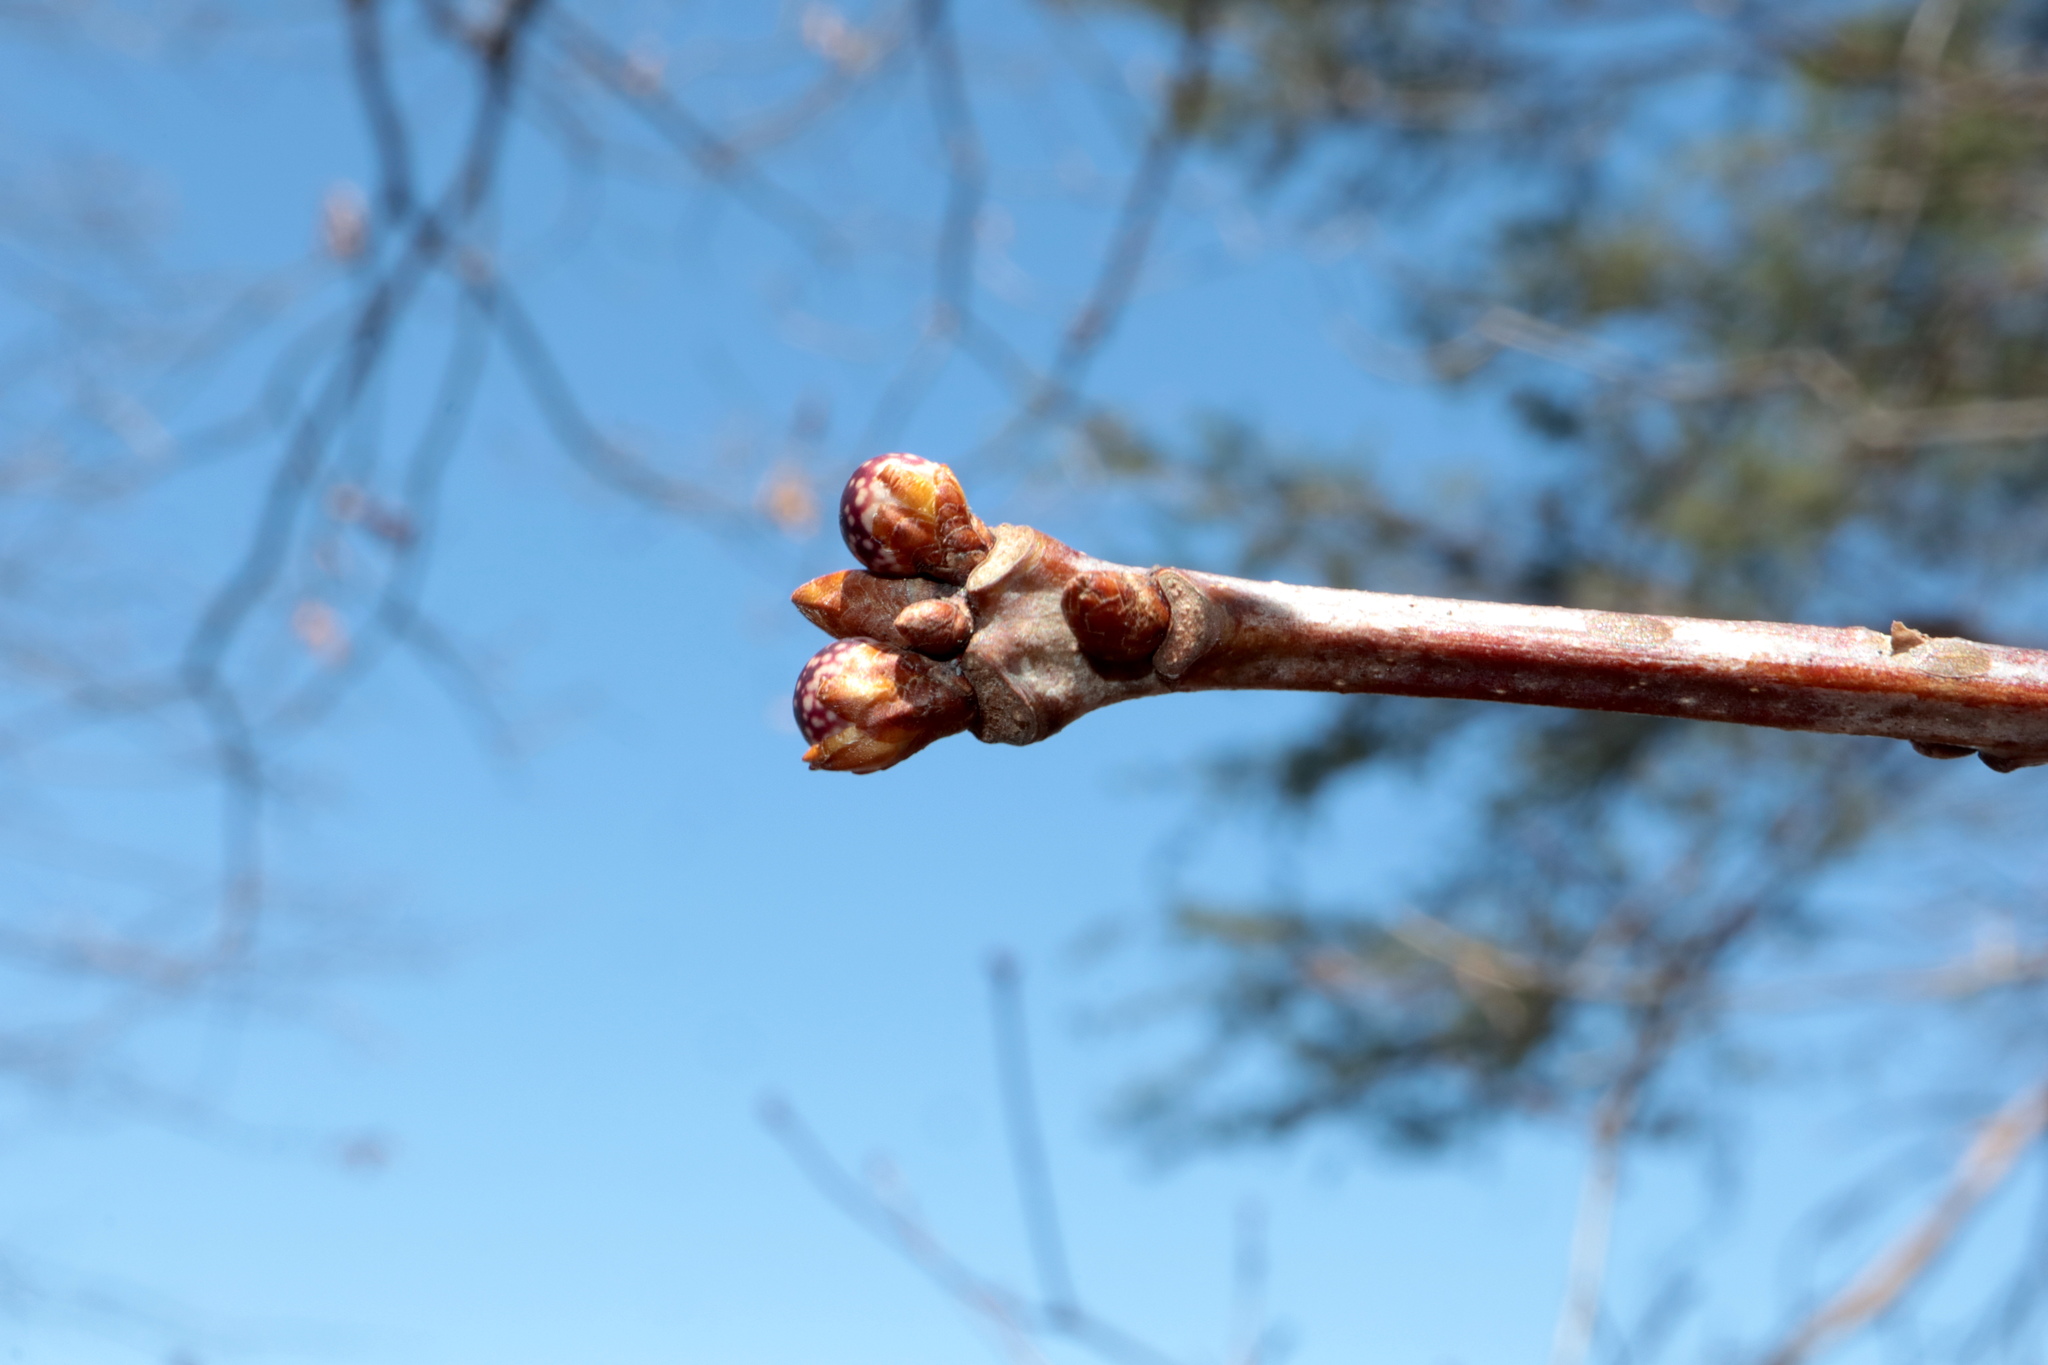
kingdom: Animalia
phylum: Arthropoda
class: Insecta
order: Hymenoptera
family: Cynipidae
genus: Andricus
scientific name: Andricus
